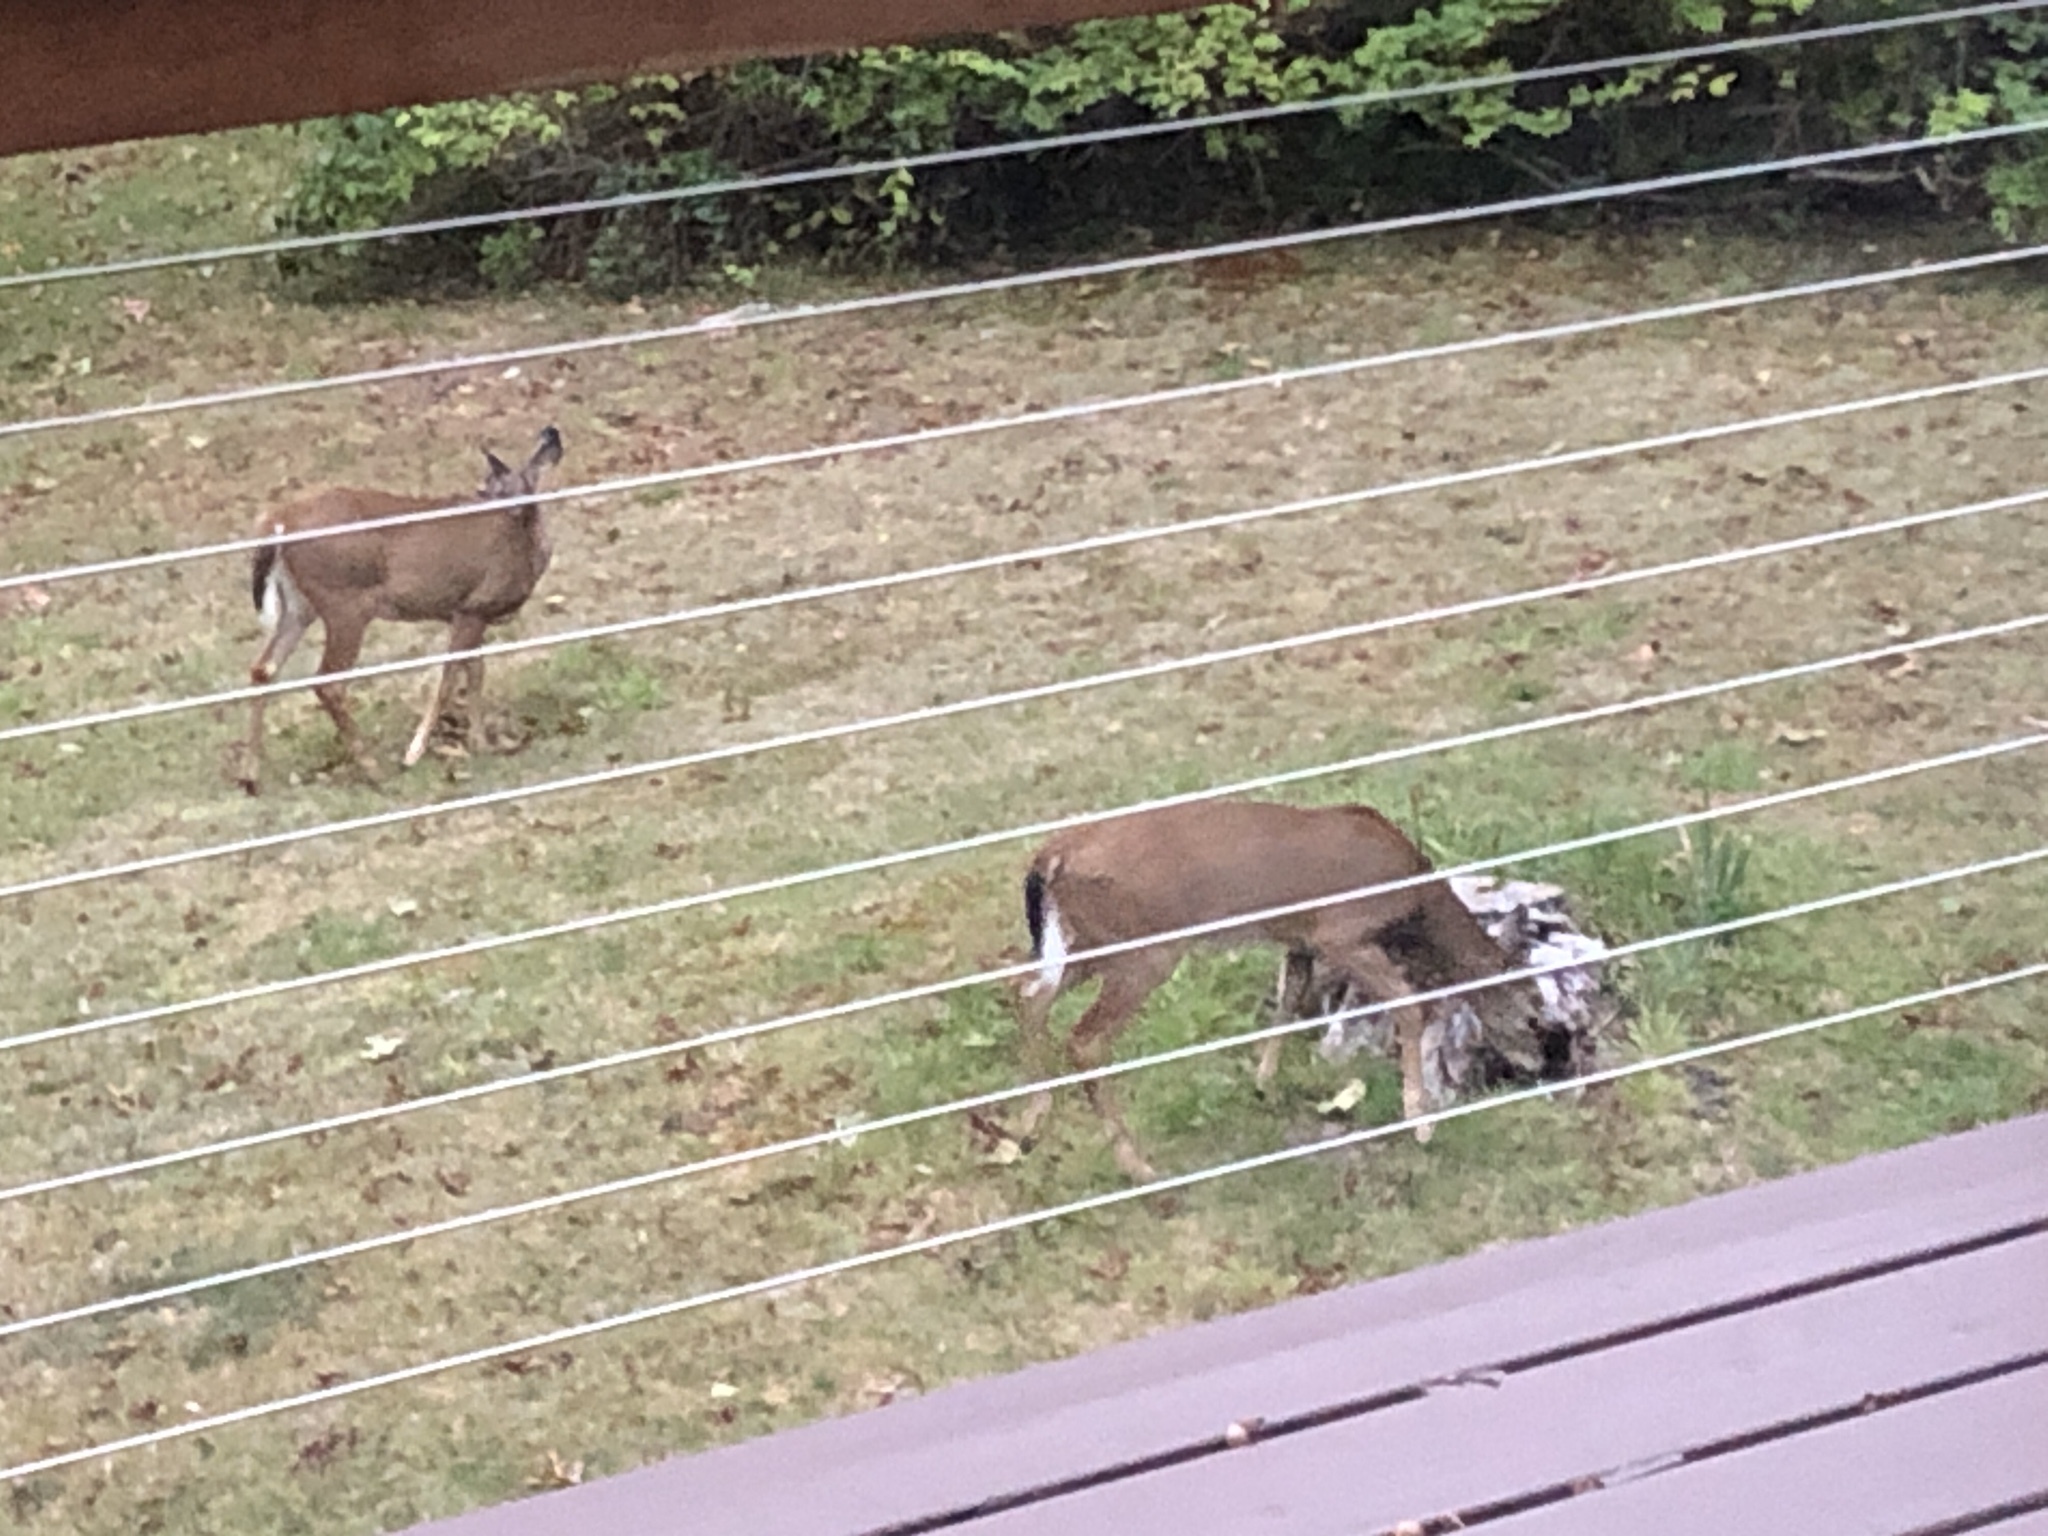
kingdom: Animalia
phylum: Chordata
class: Mammalia
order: Artiodactyla
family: Cervidae
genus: Odocoileus
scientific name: Odocoileus virginianus
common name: White-tailed deer
